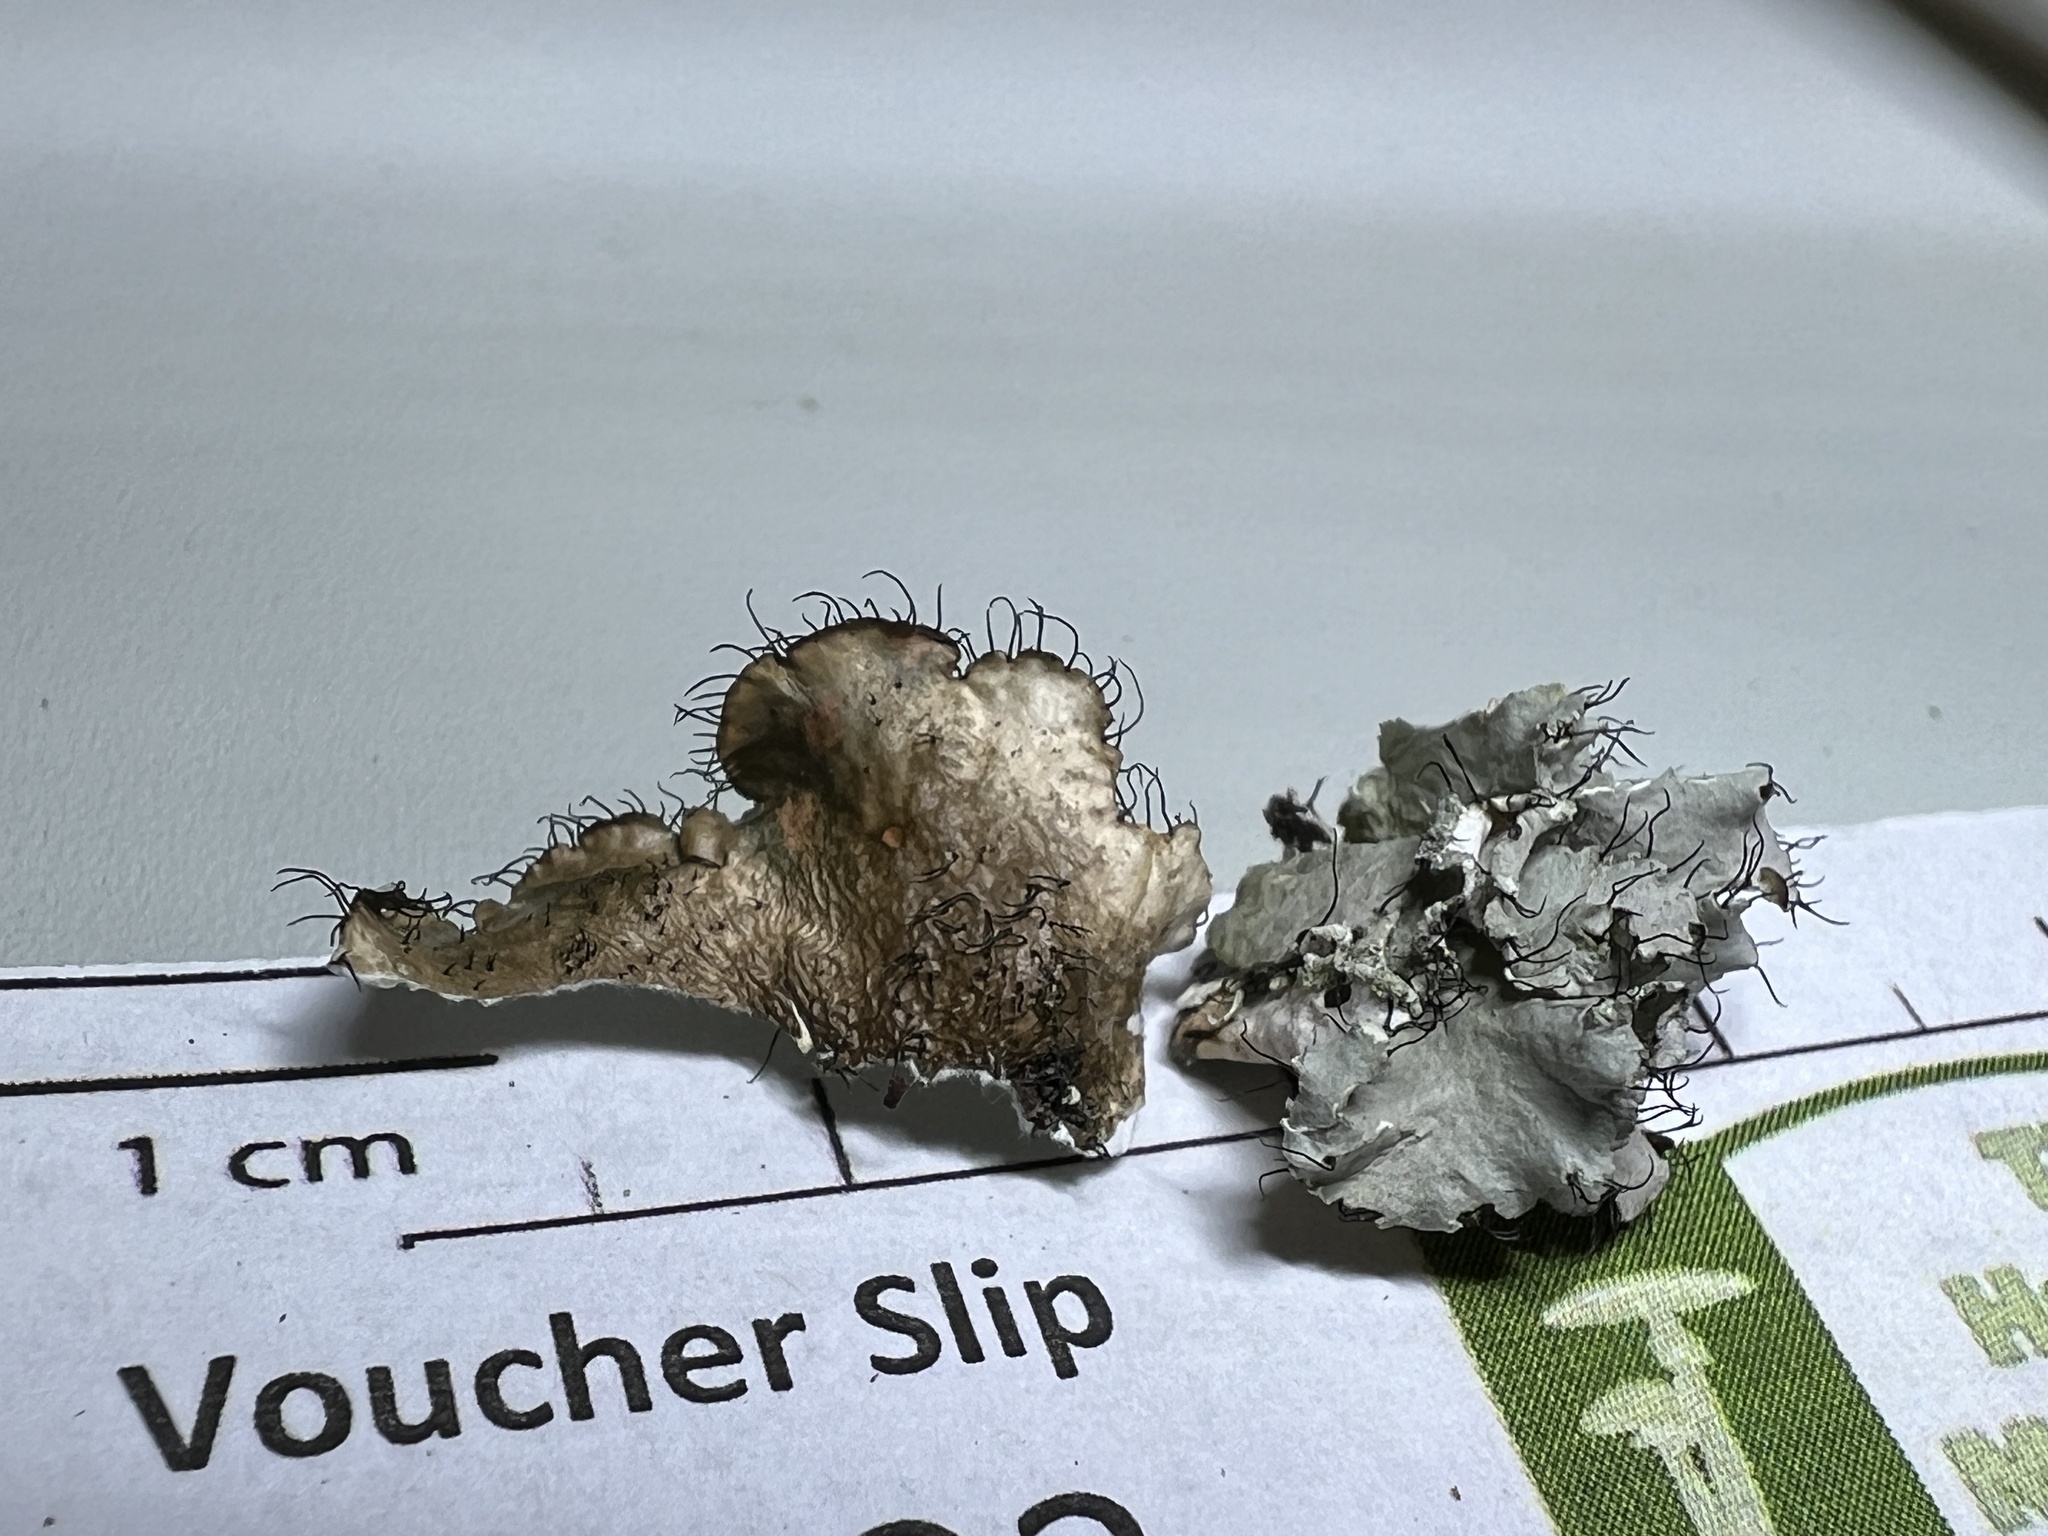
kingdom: Fungi
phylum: Ascomycota
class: Lecanoromycetes
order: Lecanorales
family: Parmeliaceae
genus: Parmotrema
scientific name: Parmotrema hypotropum
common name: Powdered ruffle lichen
